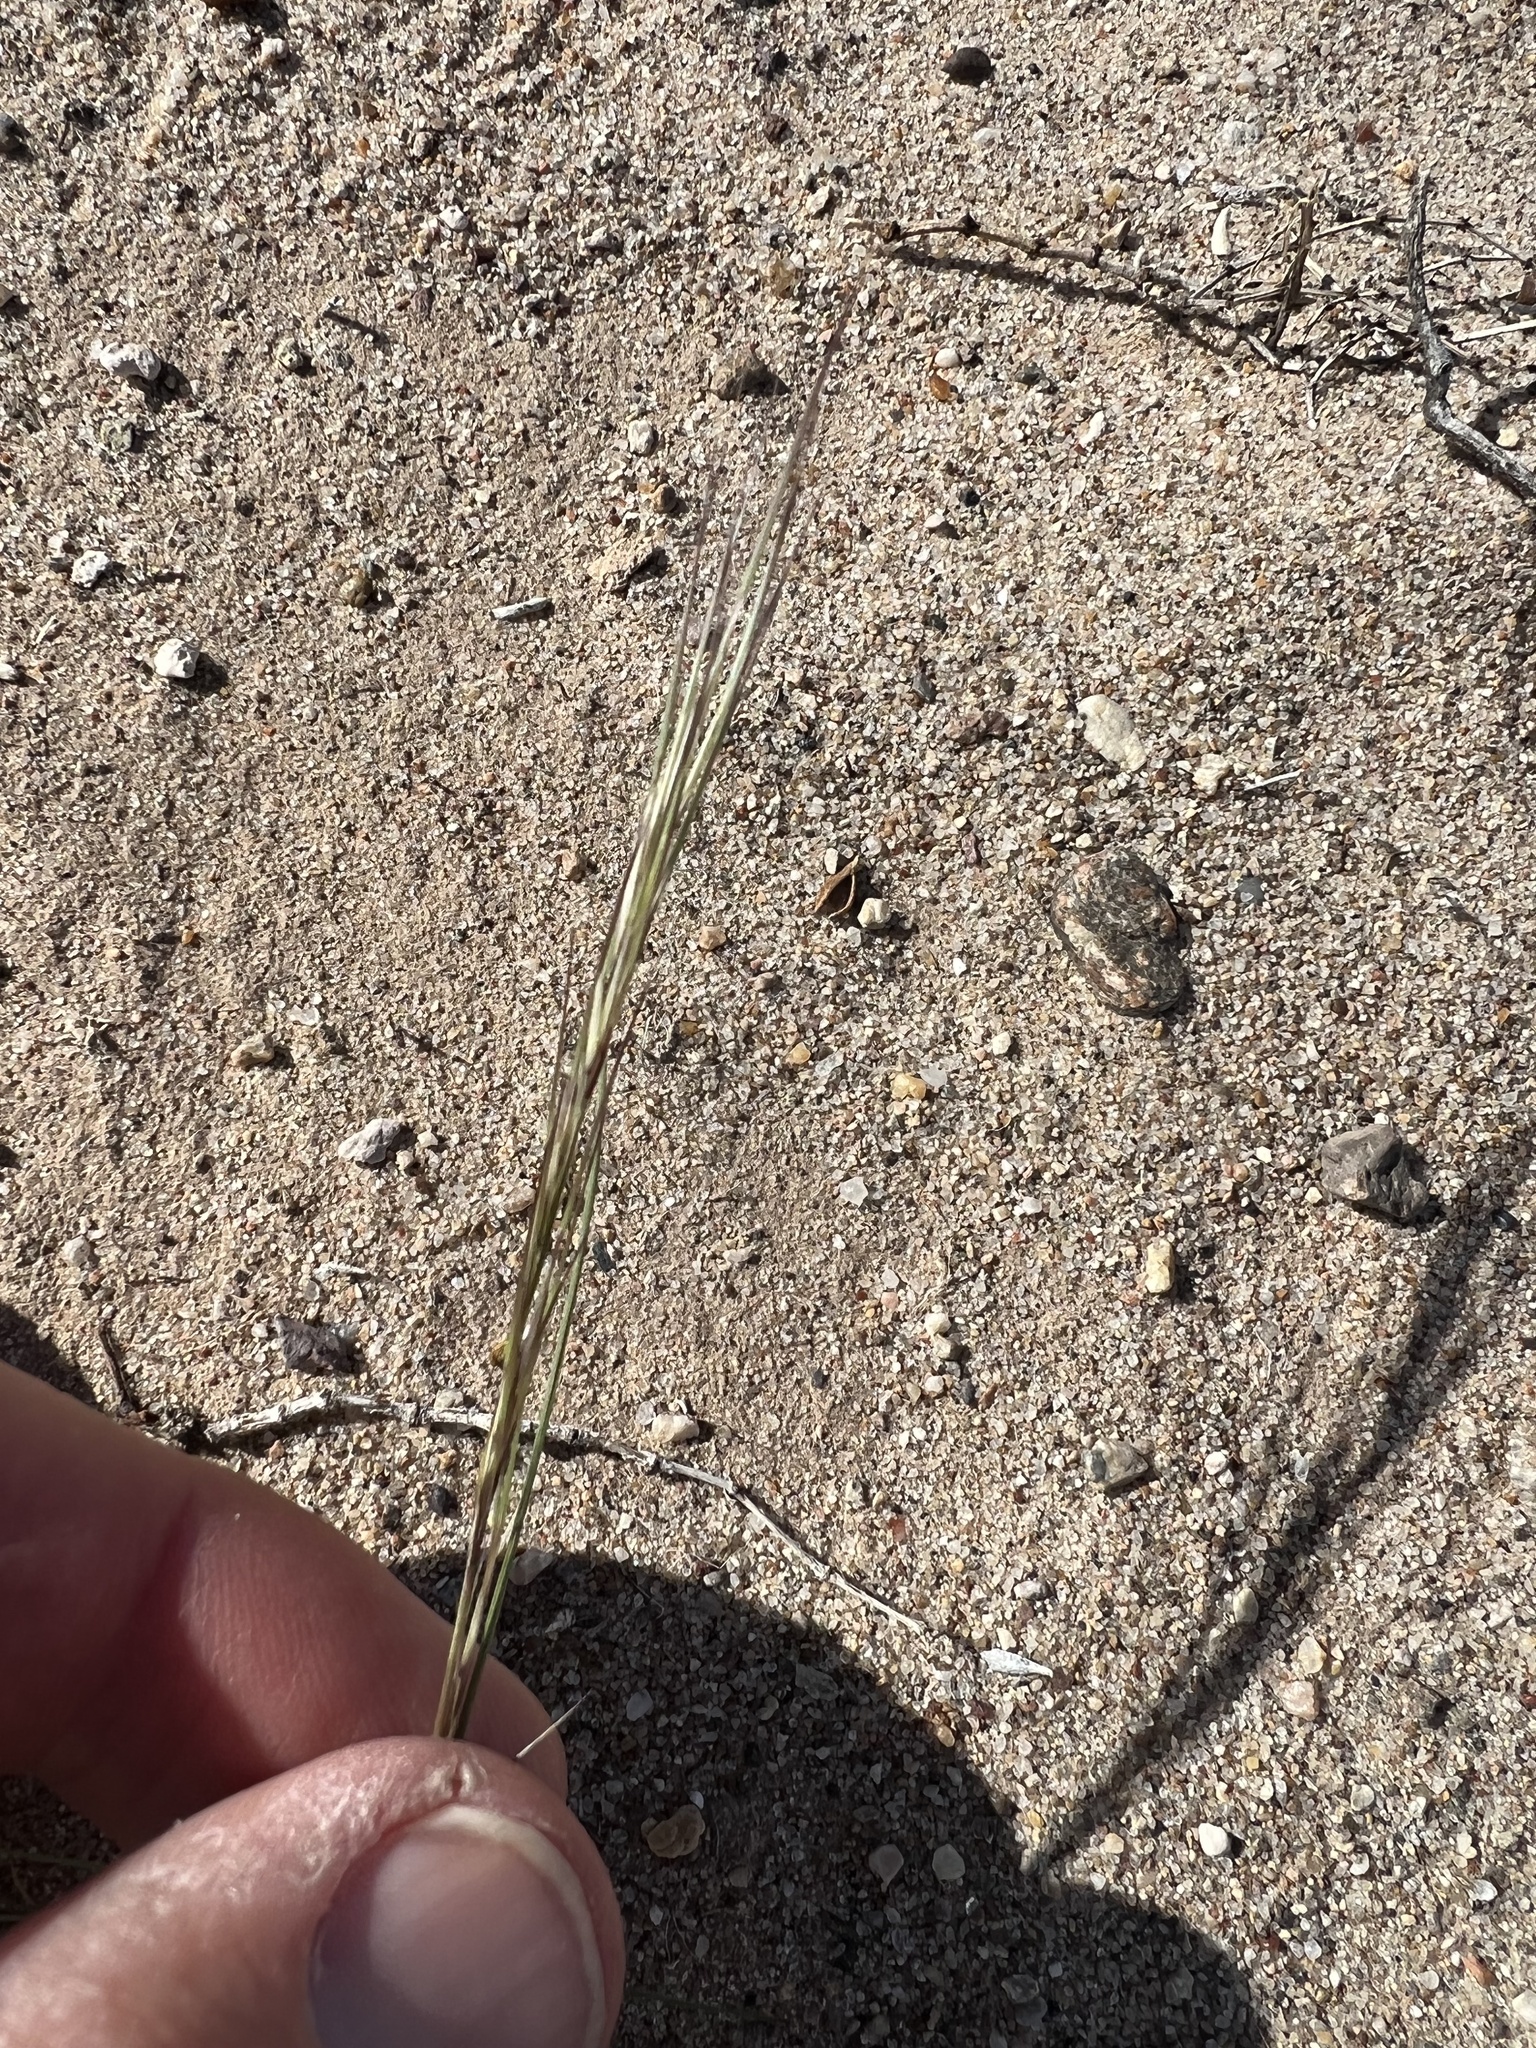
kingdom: Plantae
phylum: Tracheophyta
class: Liliopsida
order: Poales
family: Poaceae
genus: Aristida
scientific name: Aristida adscensionis
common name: Sixweeks threeawn
